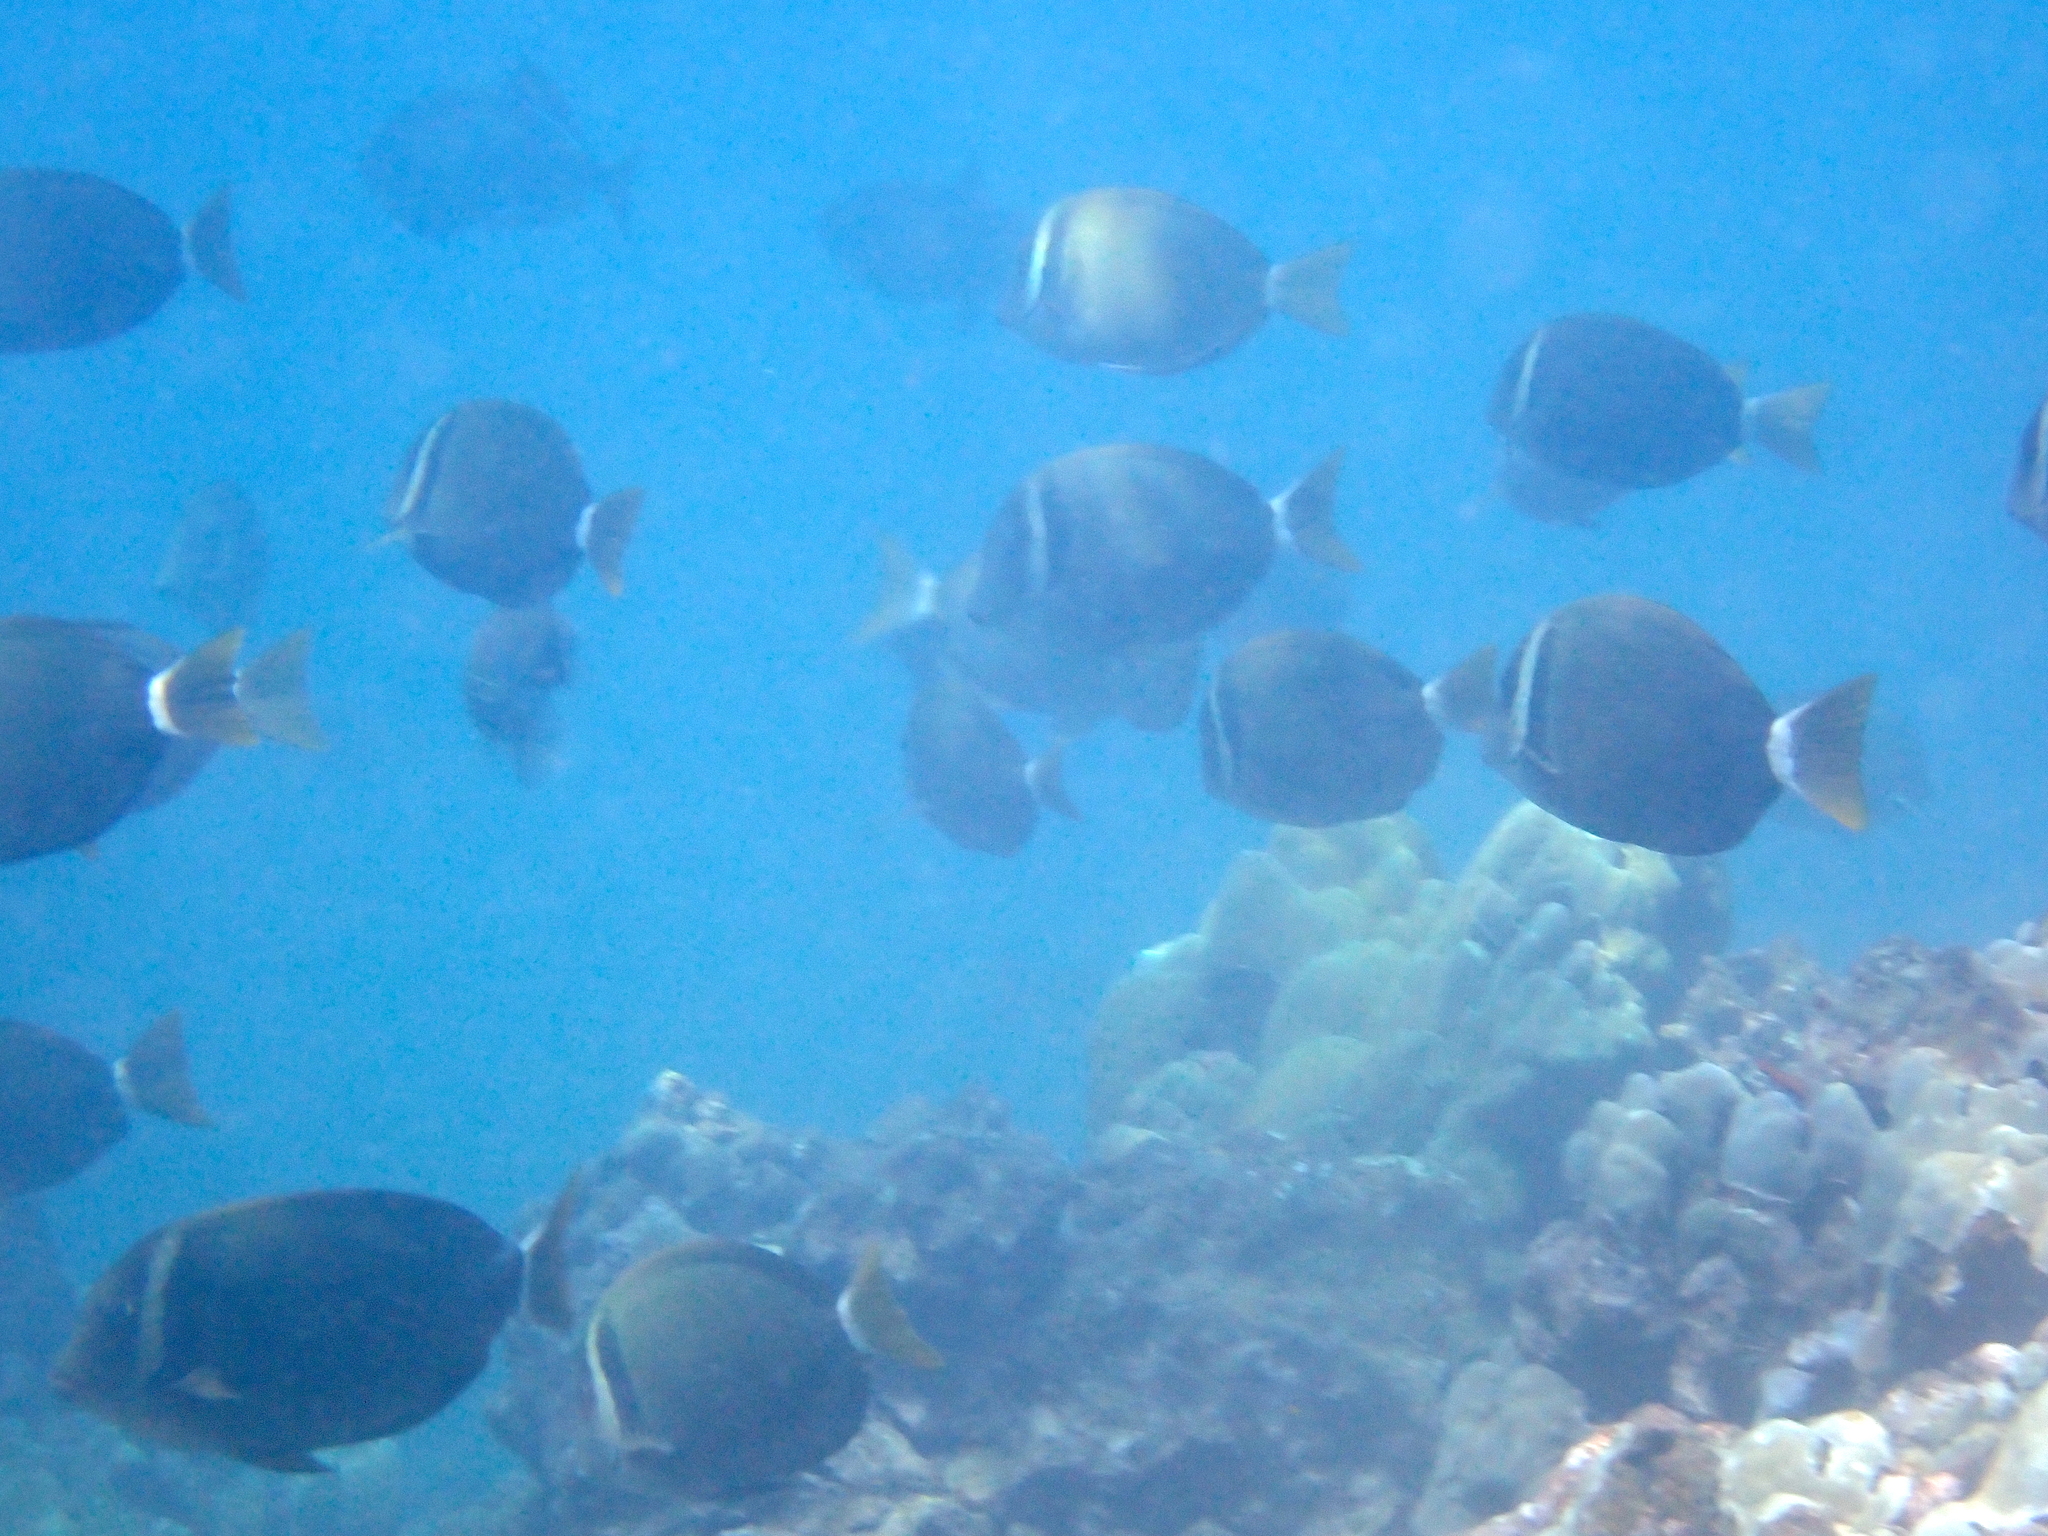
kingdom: Animalia
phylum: Chordata
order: Perciformes
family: Acanthuridae
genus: Acanthurus
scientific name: Acanthurus leucopareius
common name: Head-band surgeonfish
